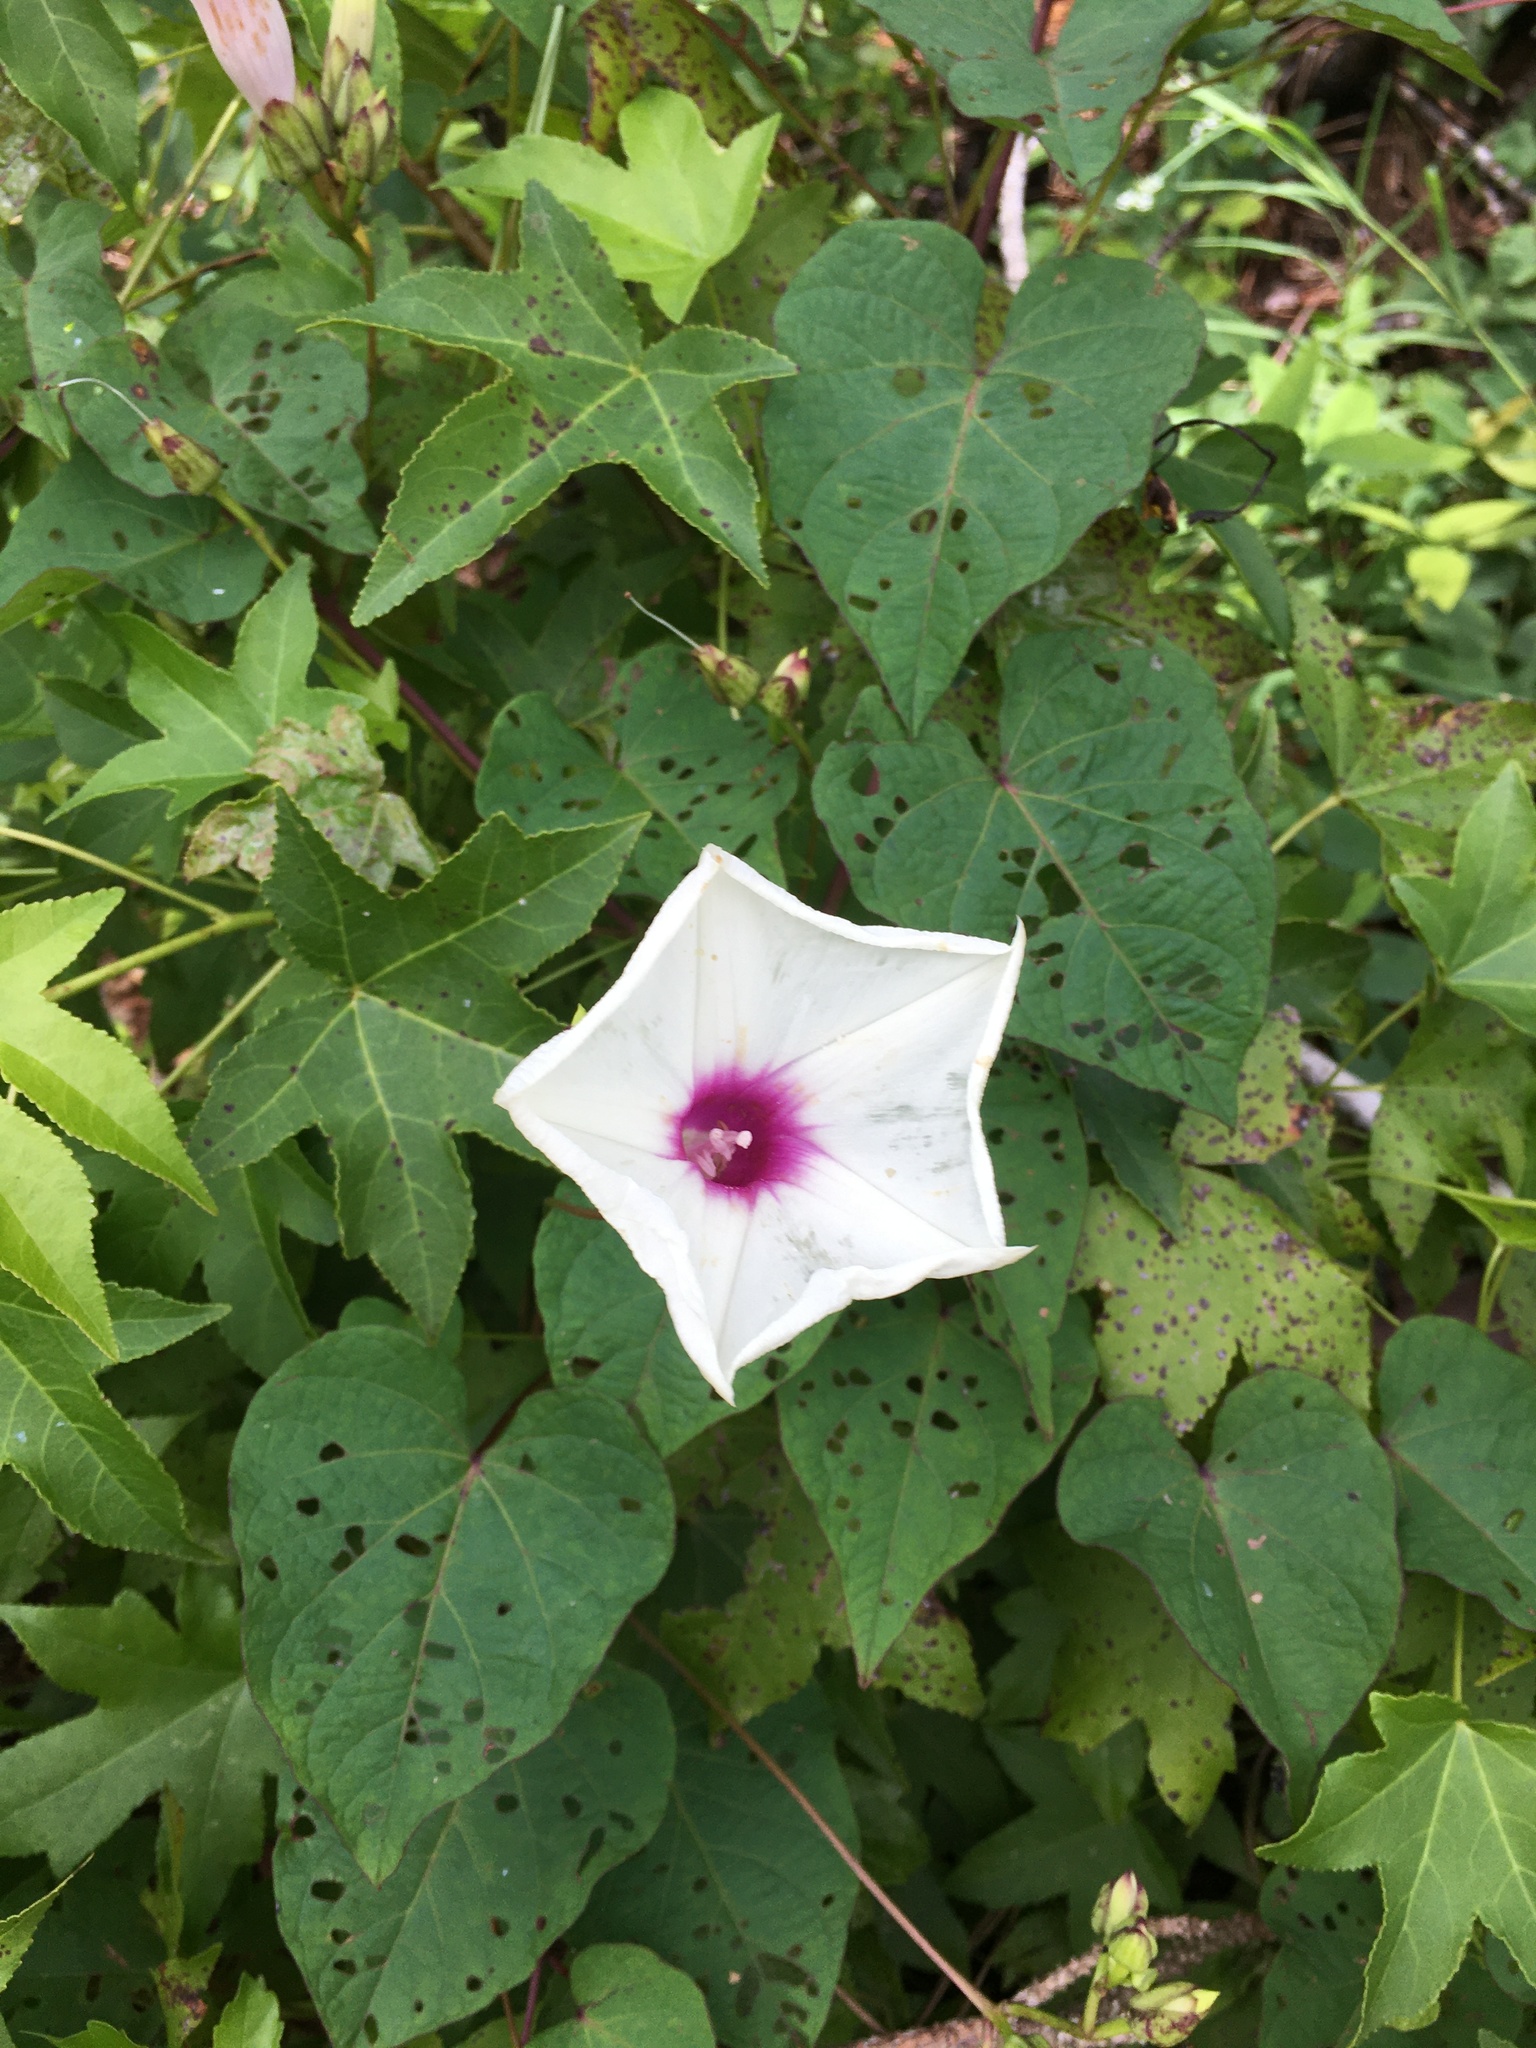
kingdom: Plantae
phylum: Tracheophyta
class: Magnoliopsida
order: Solanales
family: Convolvulaceae
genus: Ipomoea
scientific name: Ipomoea pandurata
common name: Man-of-the-earth
